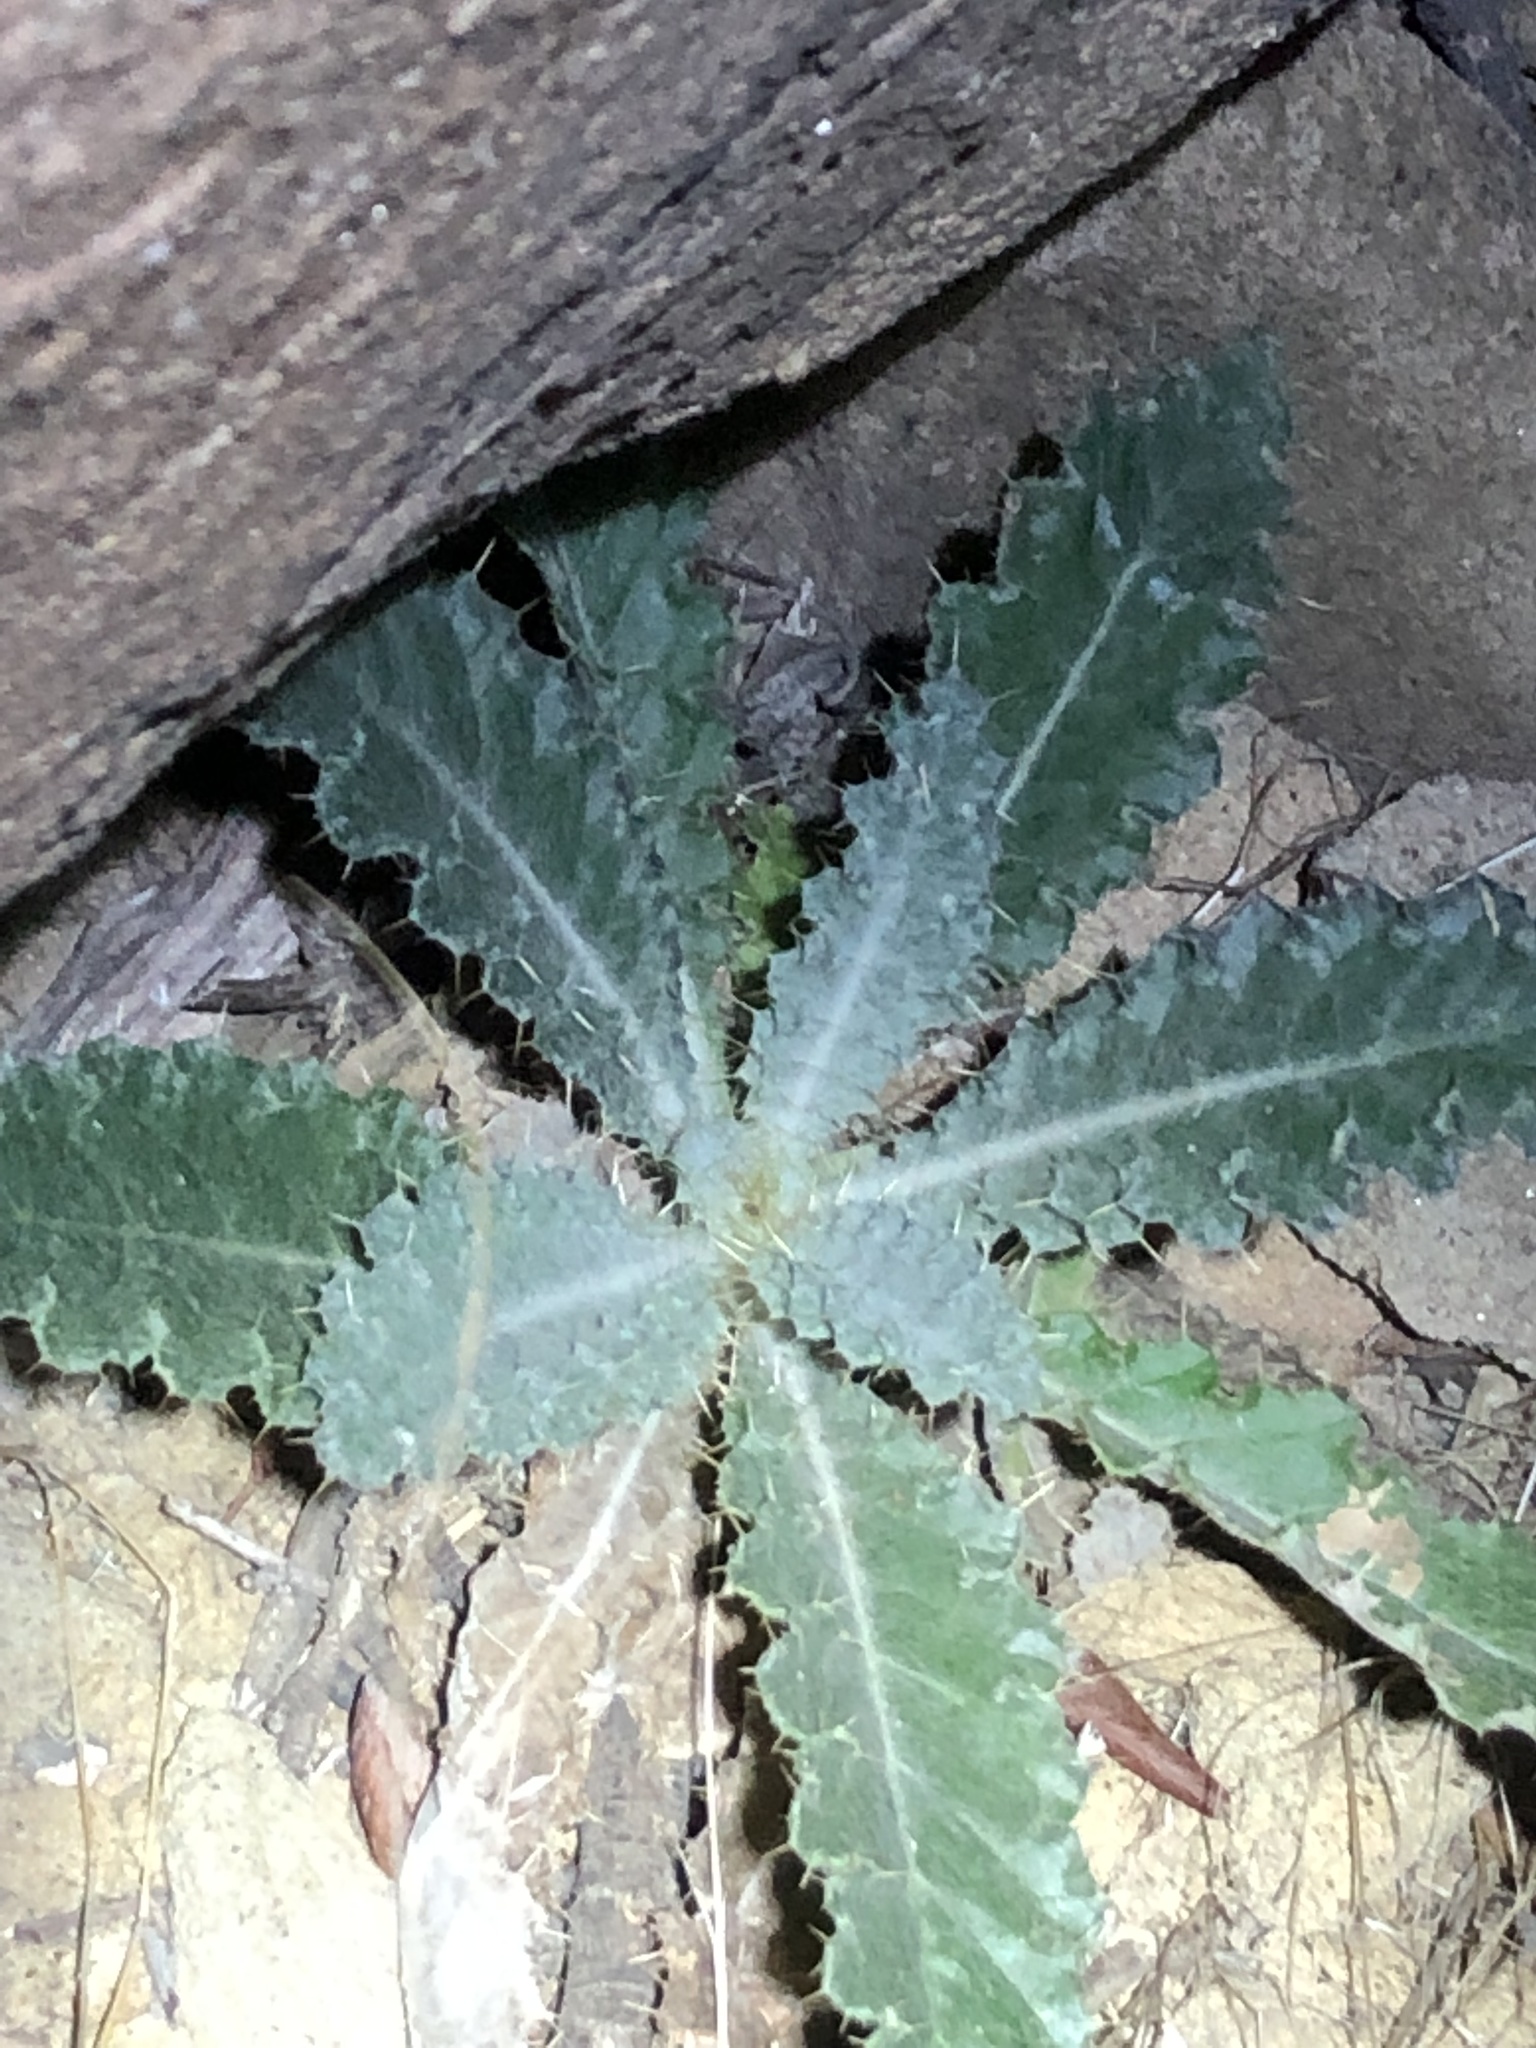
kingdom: Plantae
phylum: Tracheophyta
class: Magnoliopsida
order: Asterales
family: Asteraceae
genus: Cirsium
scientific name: Cirsium occidentale
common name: Western thistle
